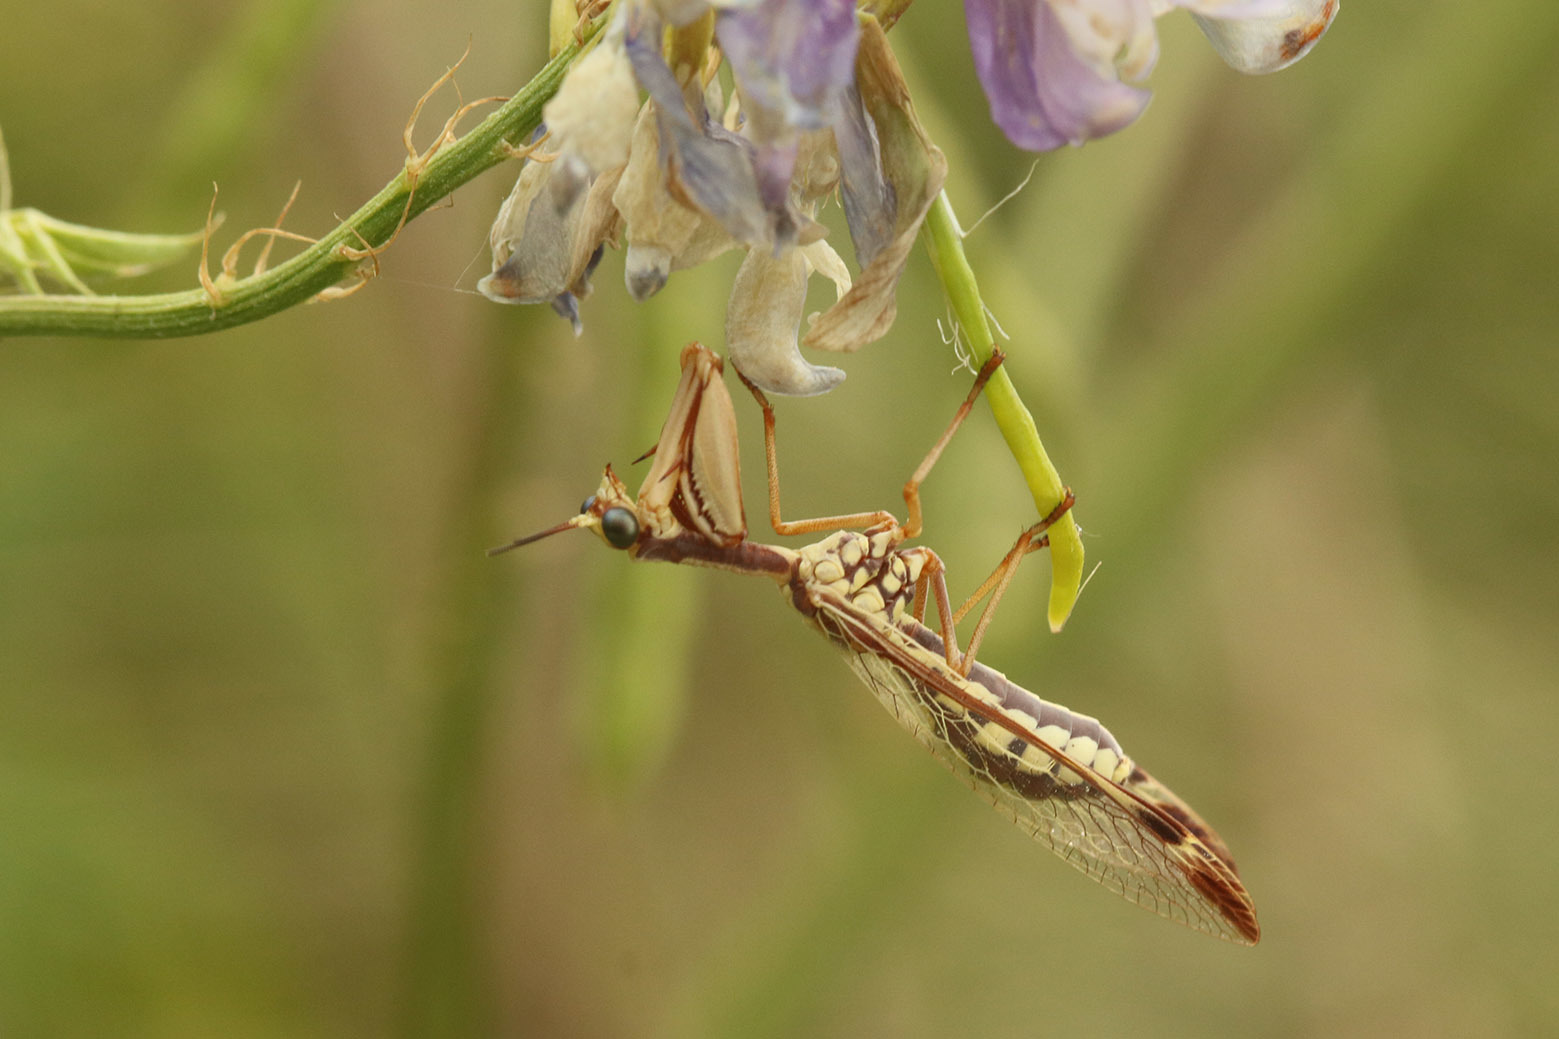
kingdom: Animalia
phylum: Arthropoda
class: Insecta
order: Neuroptera
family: Mantispidae
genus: Paramantispa
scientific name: Paramantispa prolixa
